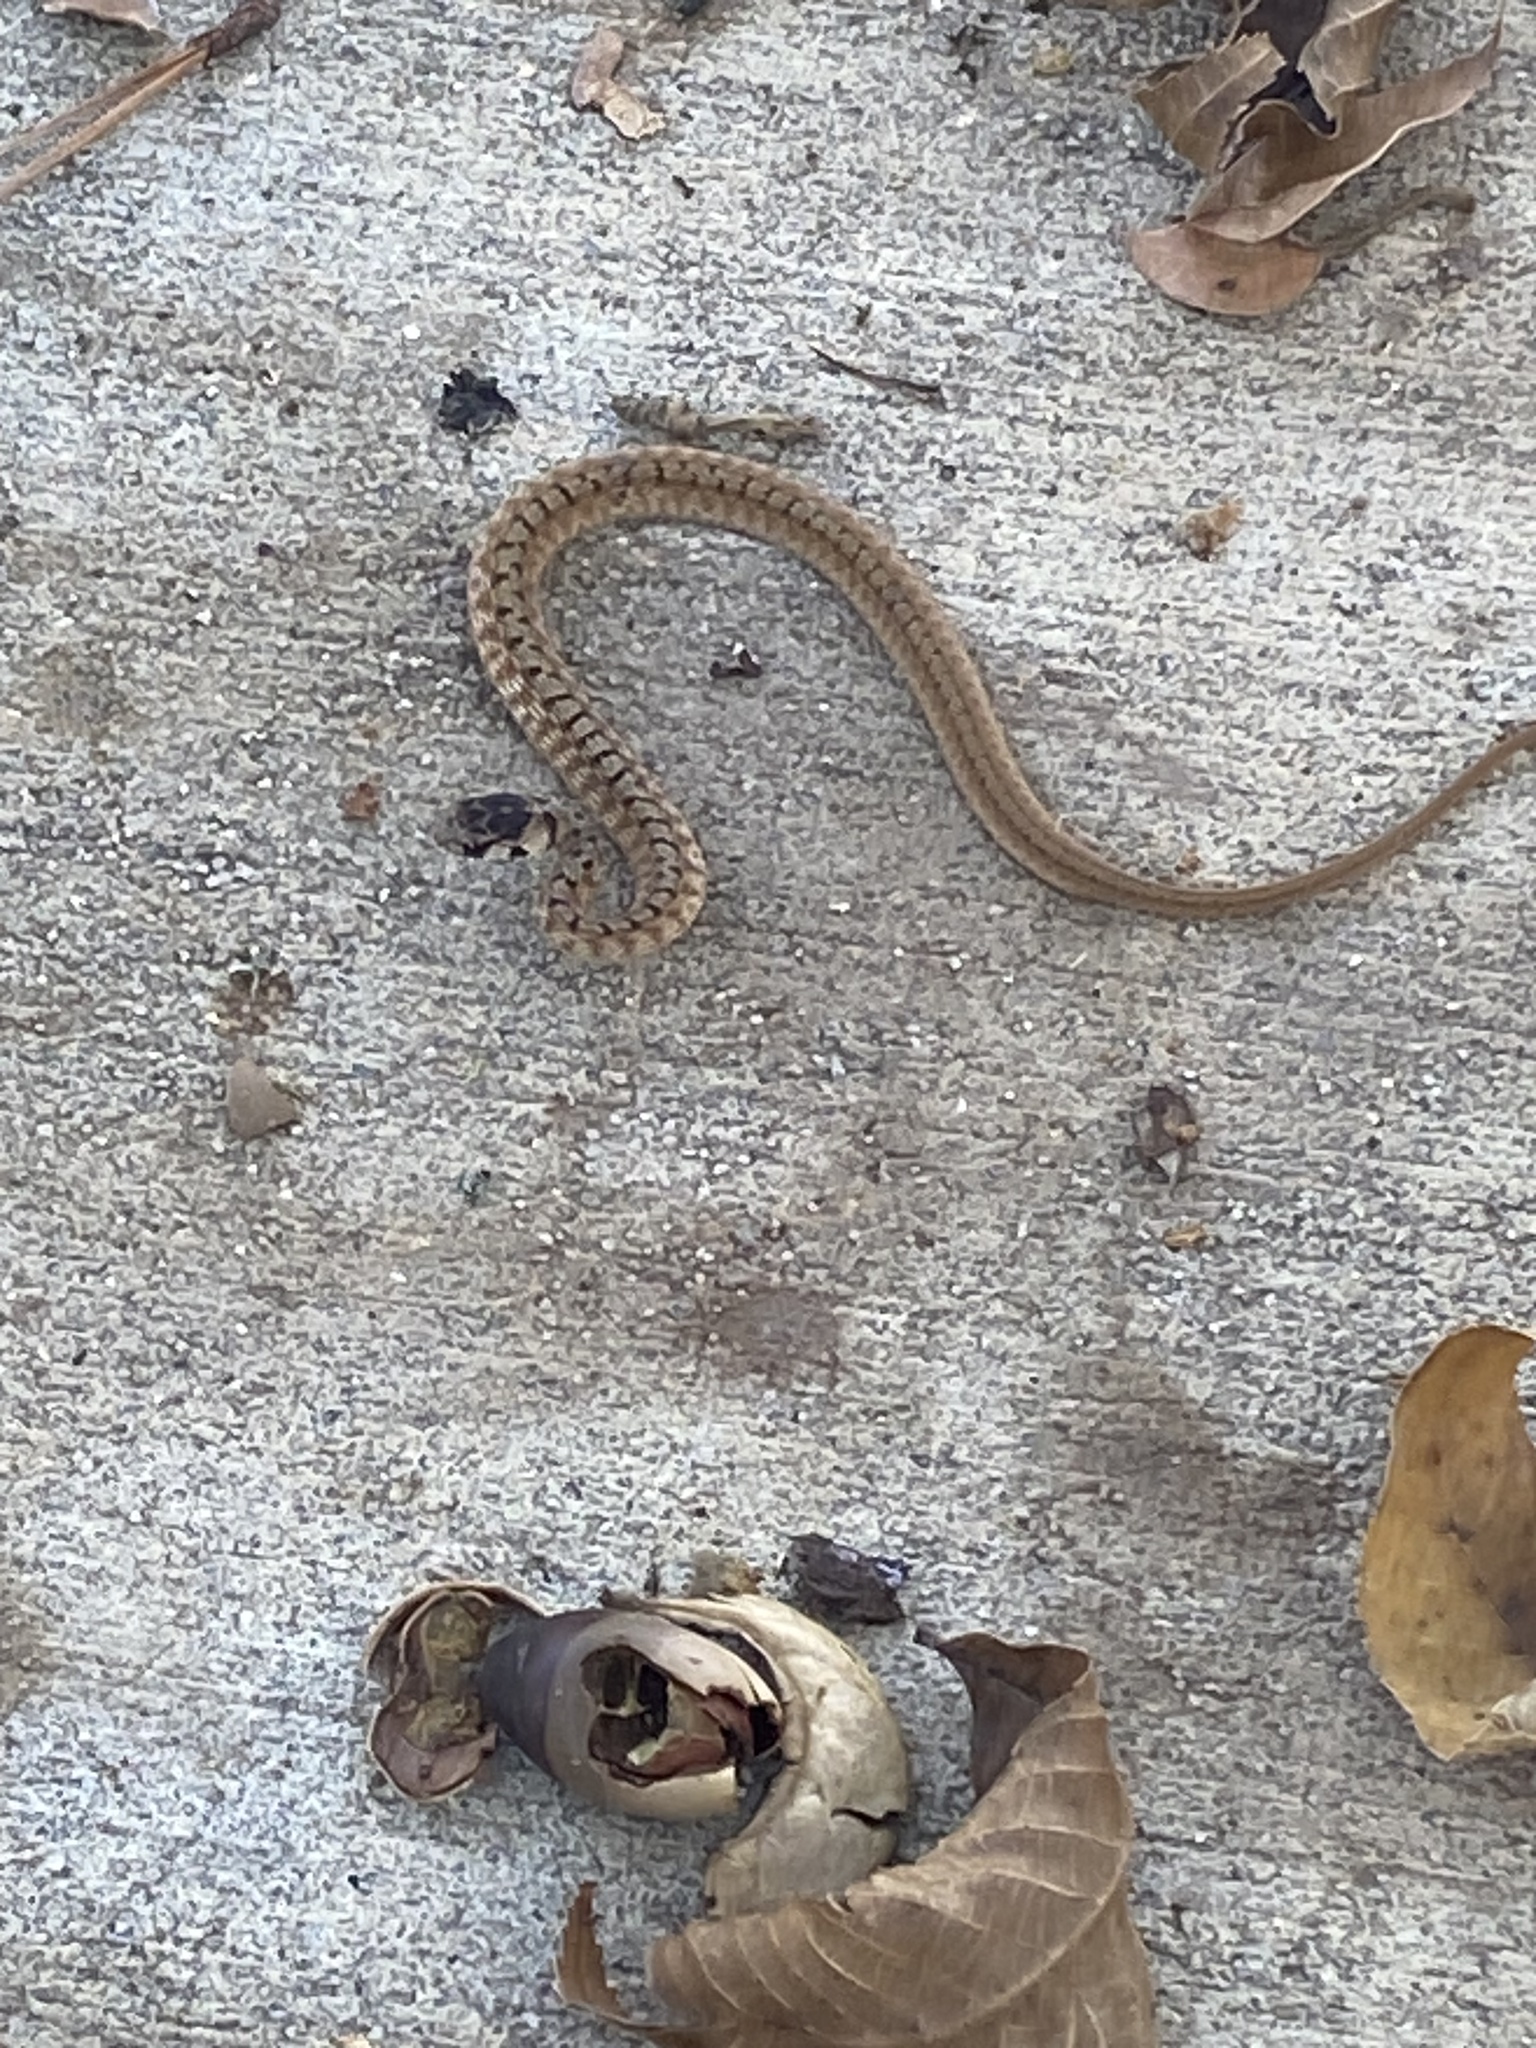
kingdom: Animalia
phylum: Chordata
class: Squamata
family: Colubridae
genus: Storeria
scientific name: Storeria dekayi
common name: (dekay’s) brown snake
